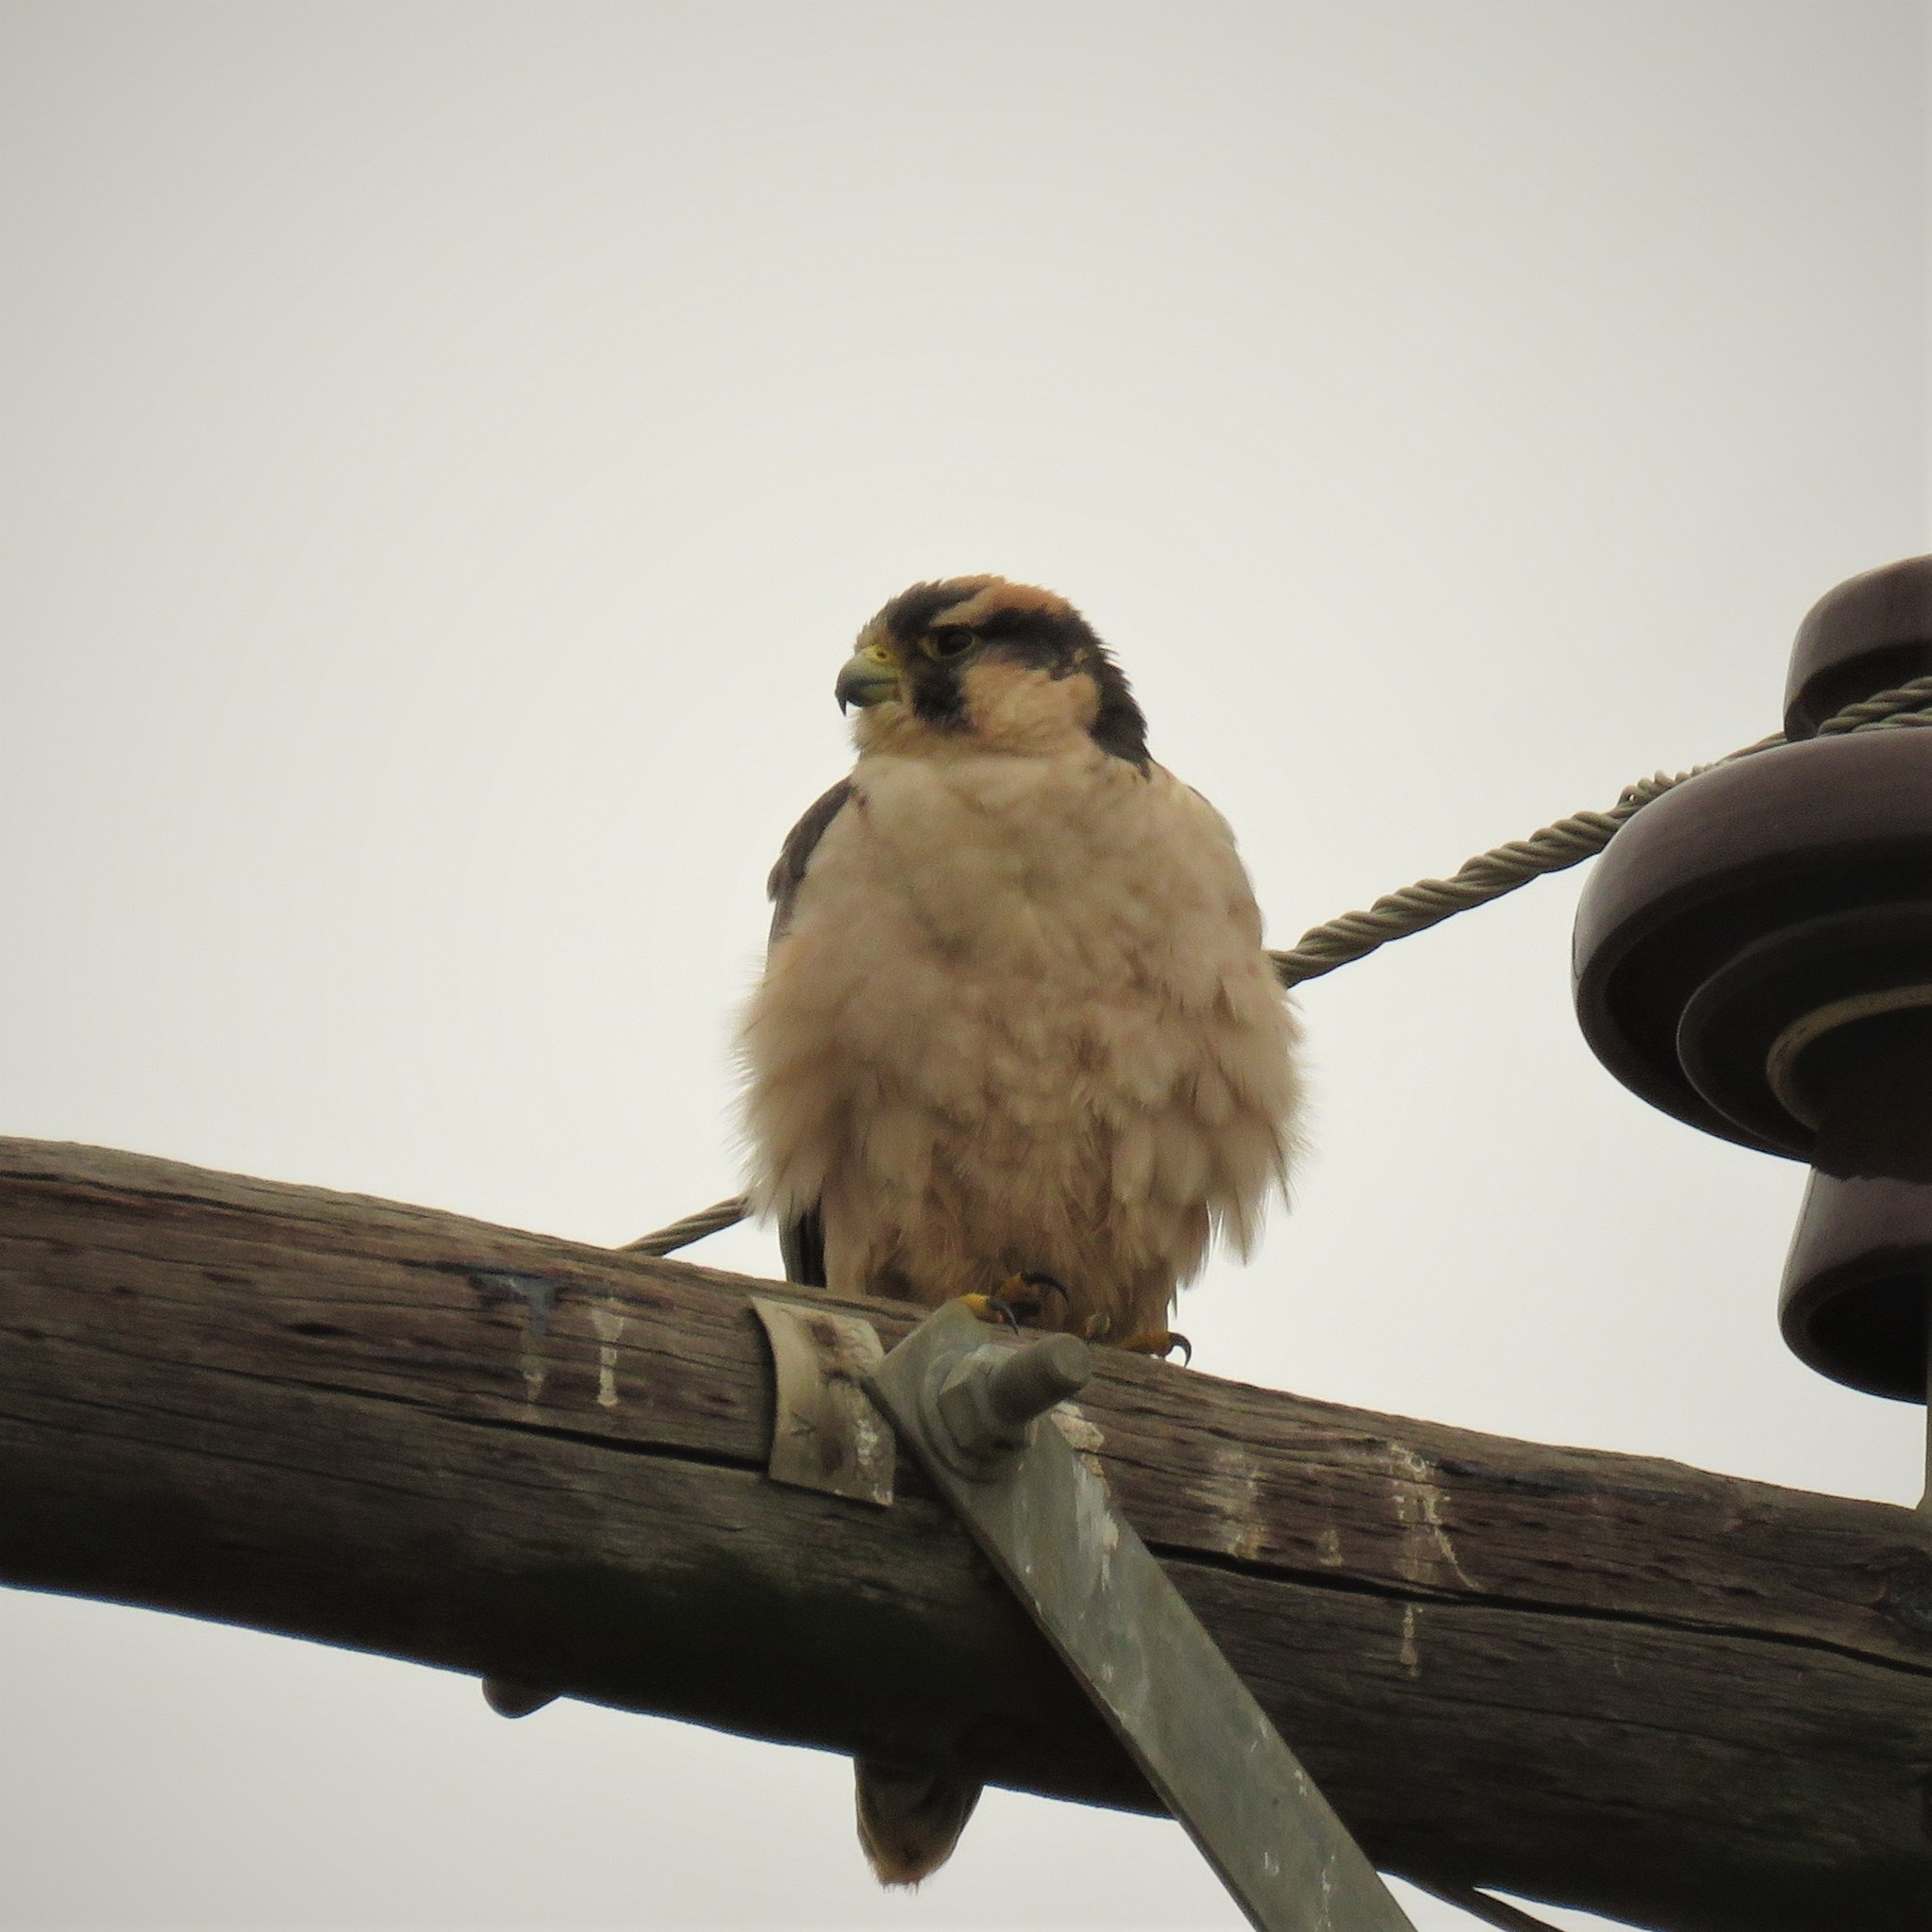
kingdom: Animalia
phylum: Chordata
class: Aves
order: Falconiformes
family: Falconidae
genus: Falco
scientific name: Falco biarmicus
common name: Lanner falcon
